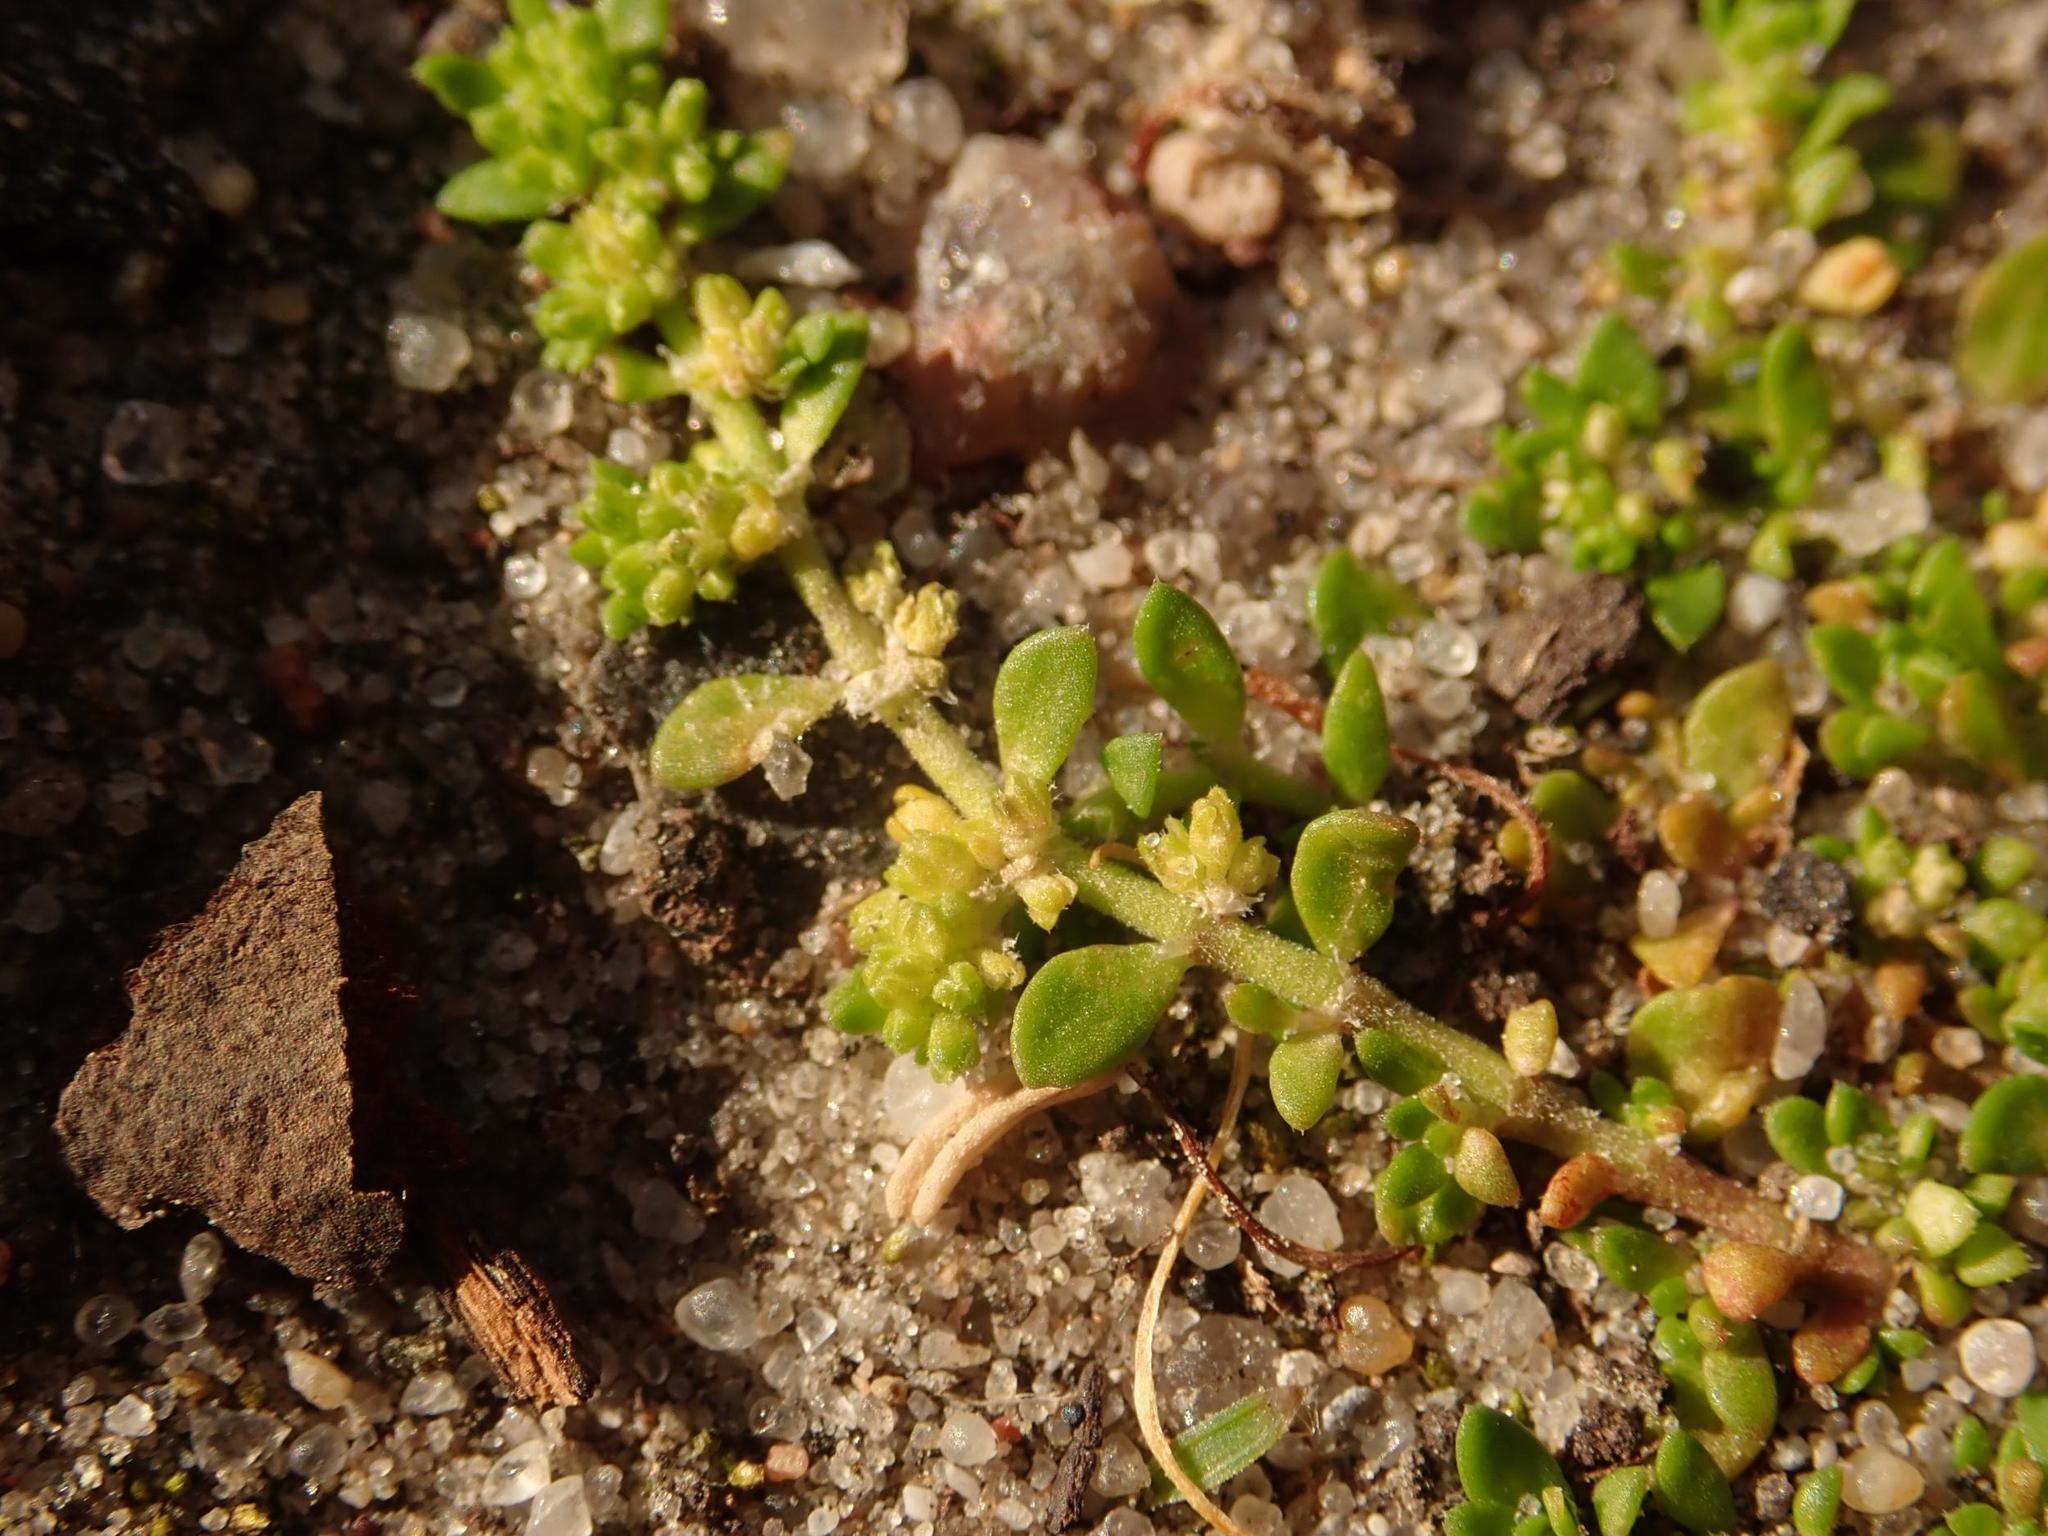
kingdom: Plantae
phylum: Tracheophyta
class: Magnoliopsida
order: Caryophyllales
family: Caryophyllaceae
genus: Herniaria
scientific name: Herniaria glabra
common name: Smooth rupturewort
